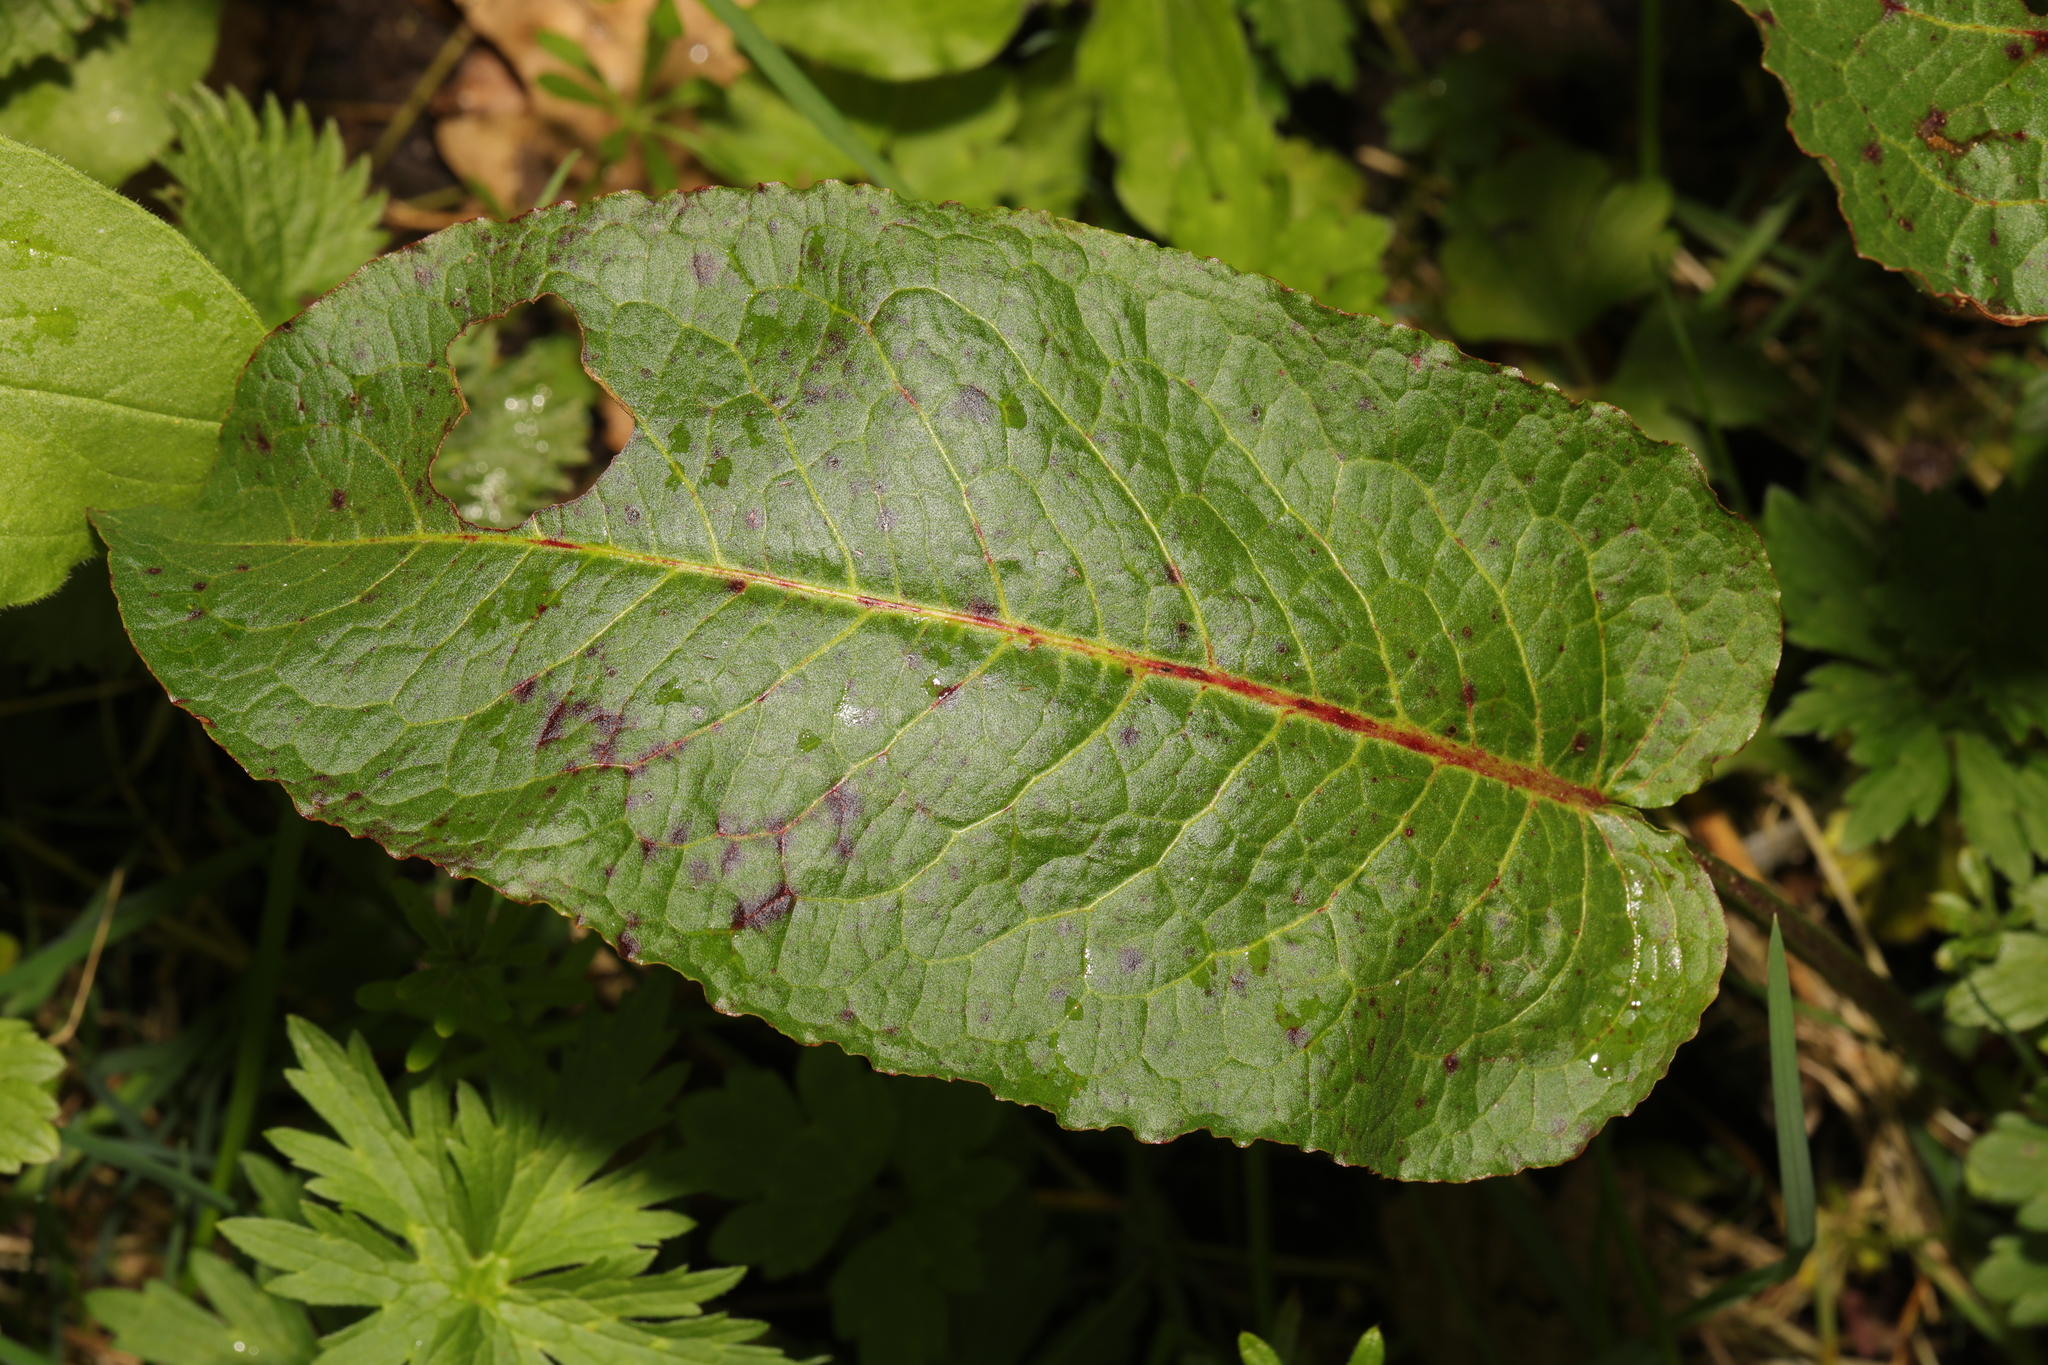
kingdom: Plantae
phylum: Tracheophyta
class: Magnoliopsida
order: Caryophyllales
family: Polygonaceae
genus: Rumex
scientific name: Rumex obtusifolius
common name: Bitter dock
